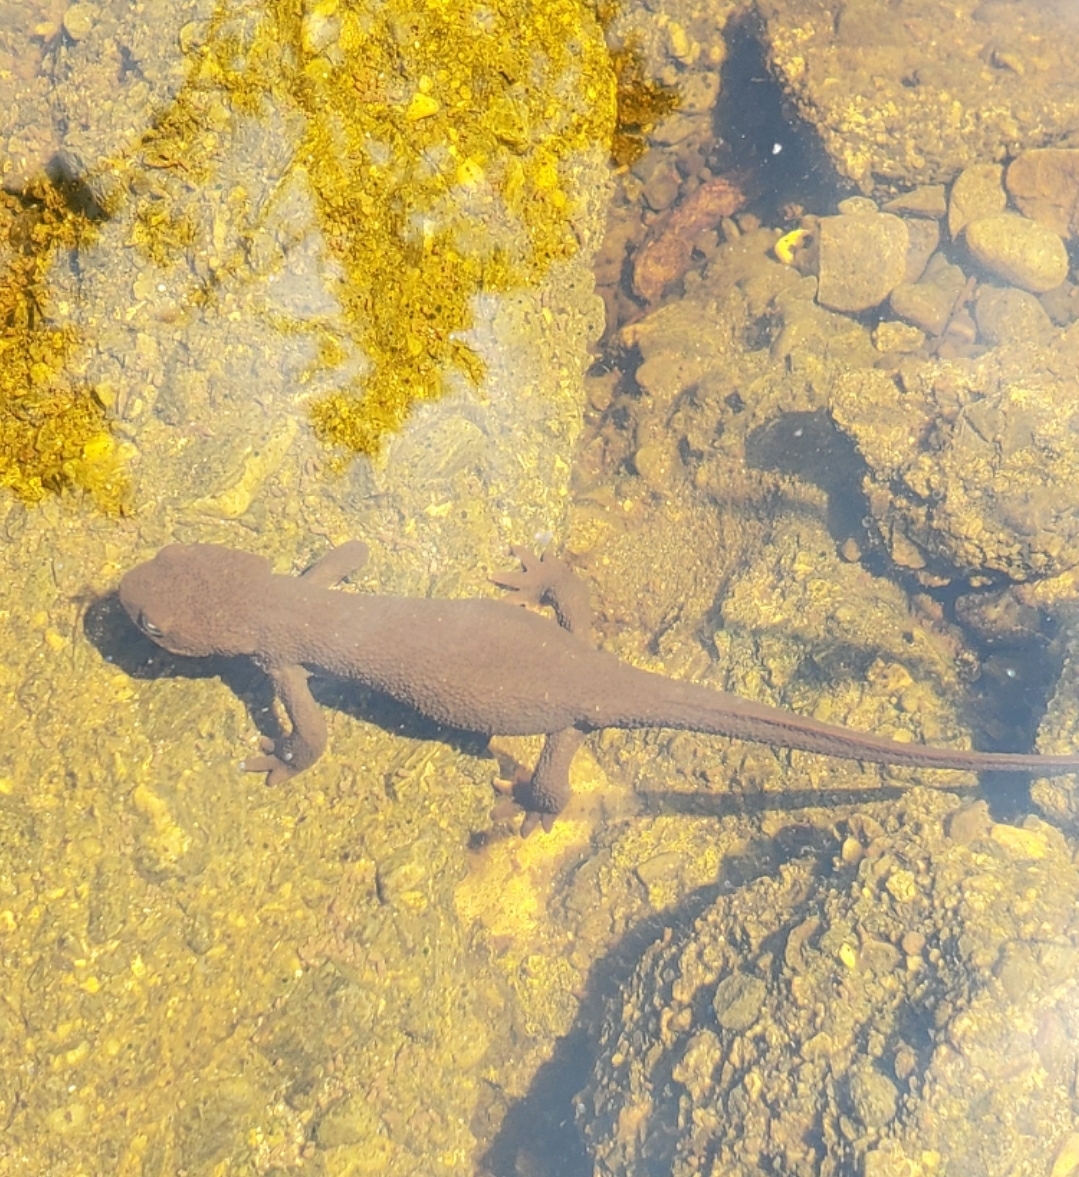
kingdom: Animalia
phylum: Chordata
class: Amphibia
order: Caudata
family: Salamandridae
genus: Taricha
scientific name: Taricha granulosa
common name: Roughskin newt
